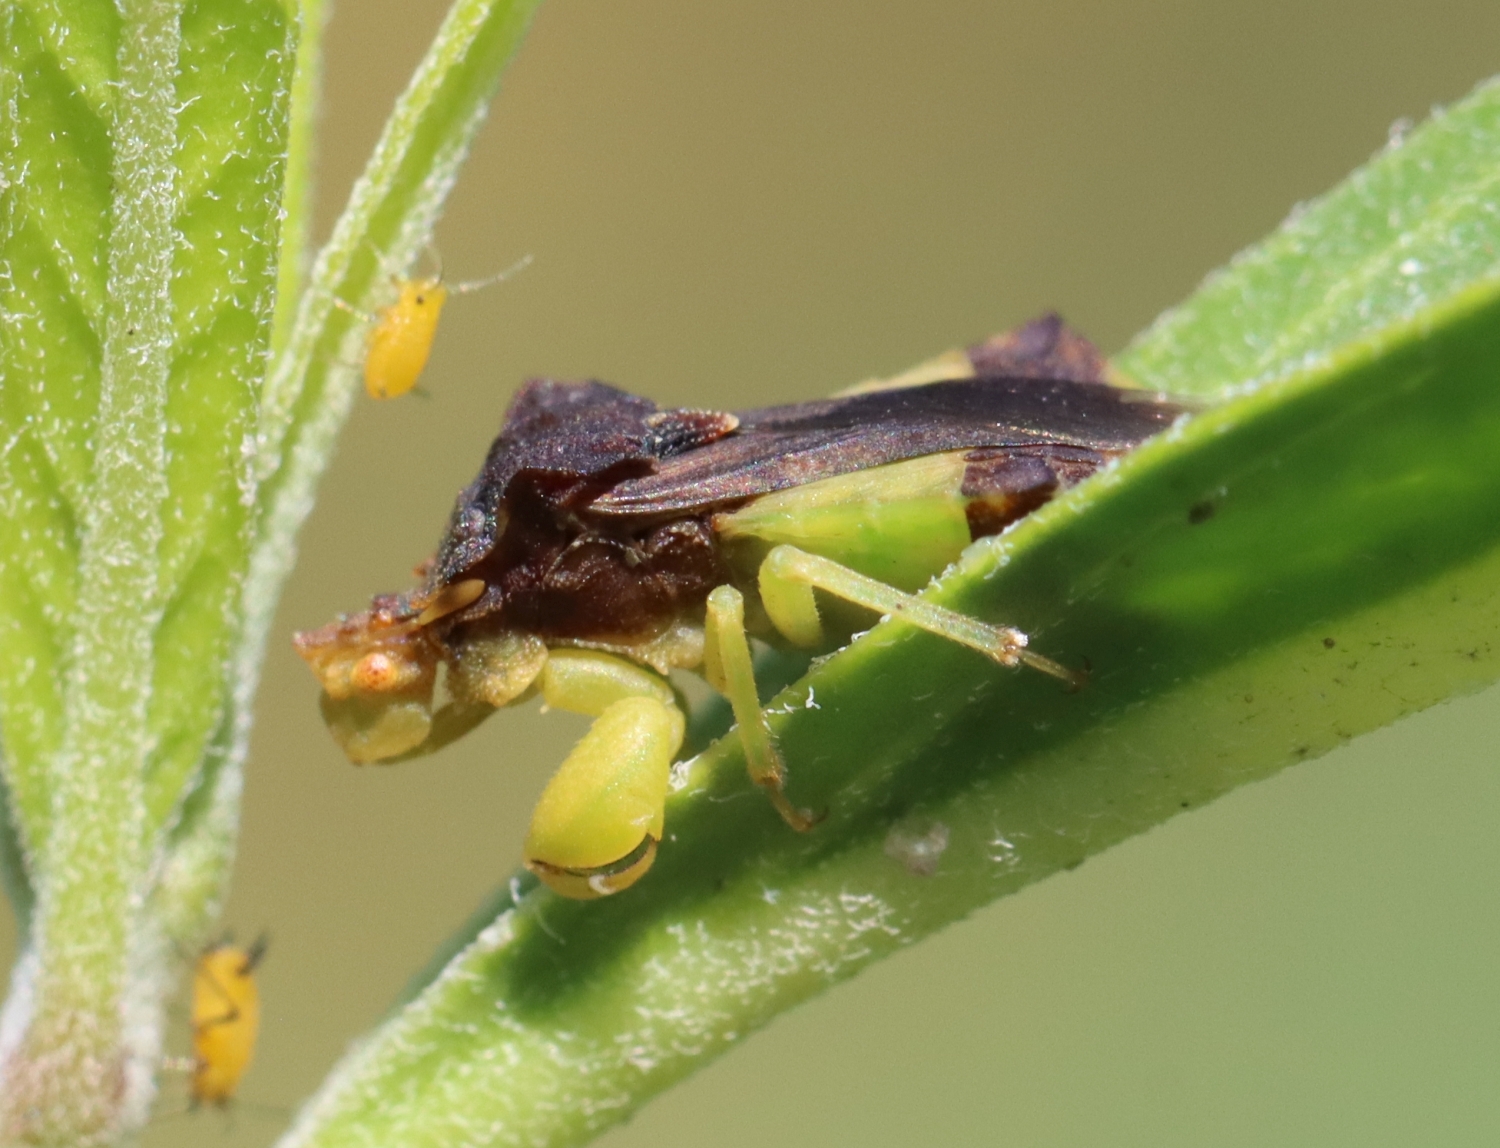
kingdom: Animalia
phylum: Arthropoda
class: Insecta
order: Hemiptera
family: Reduviidae
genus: Phymata
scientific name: Phymata pennsylvanica
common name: Pennsylvania ambush bug
